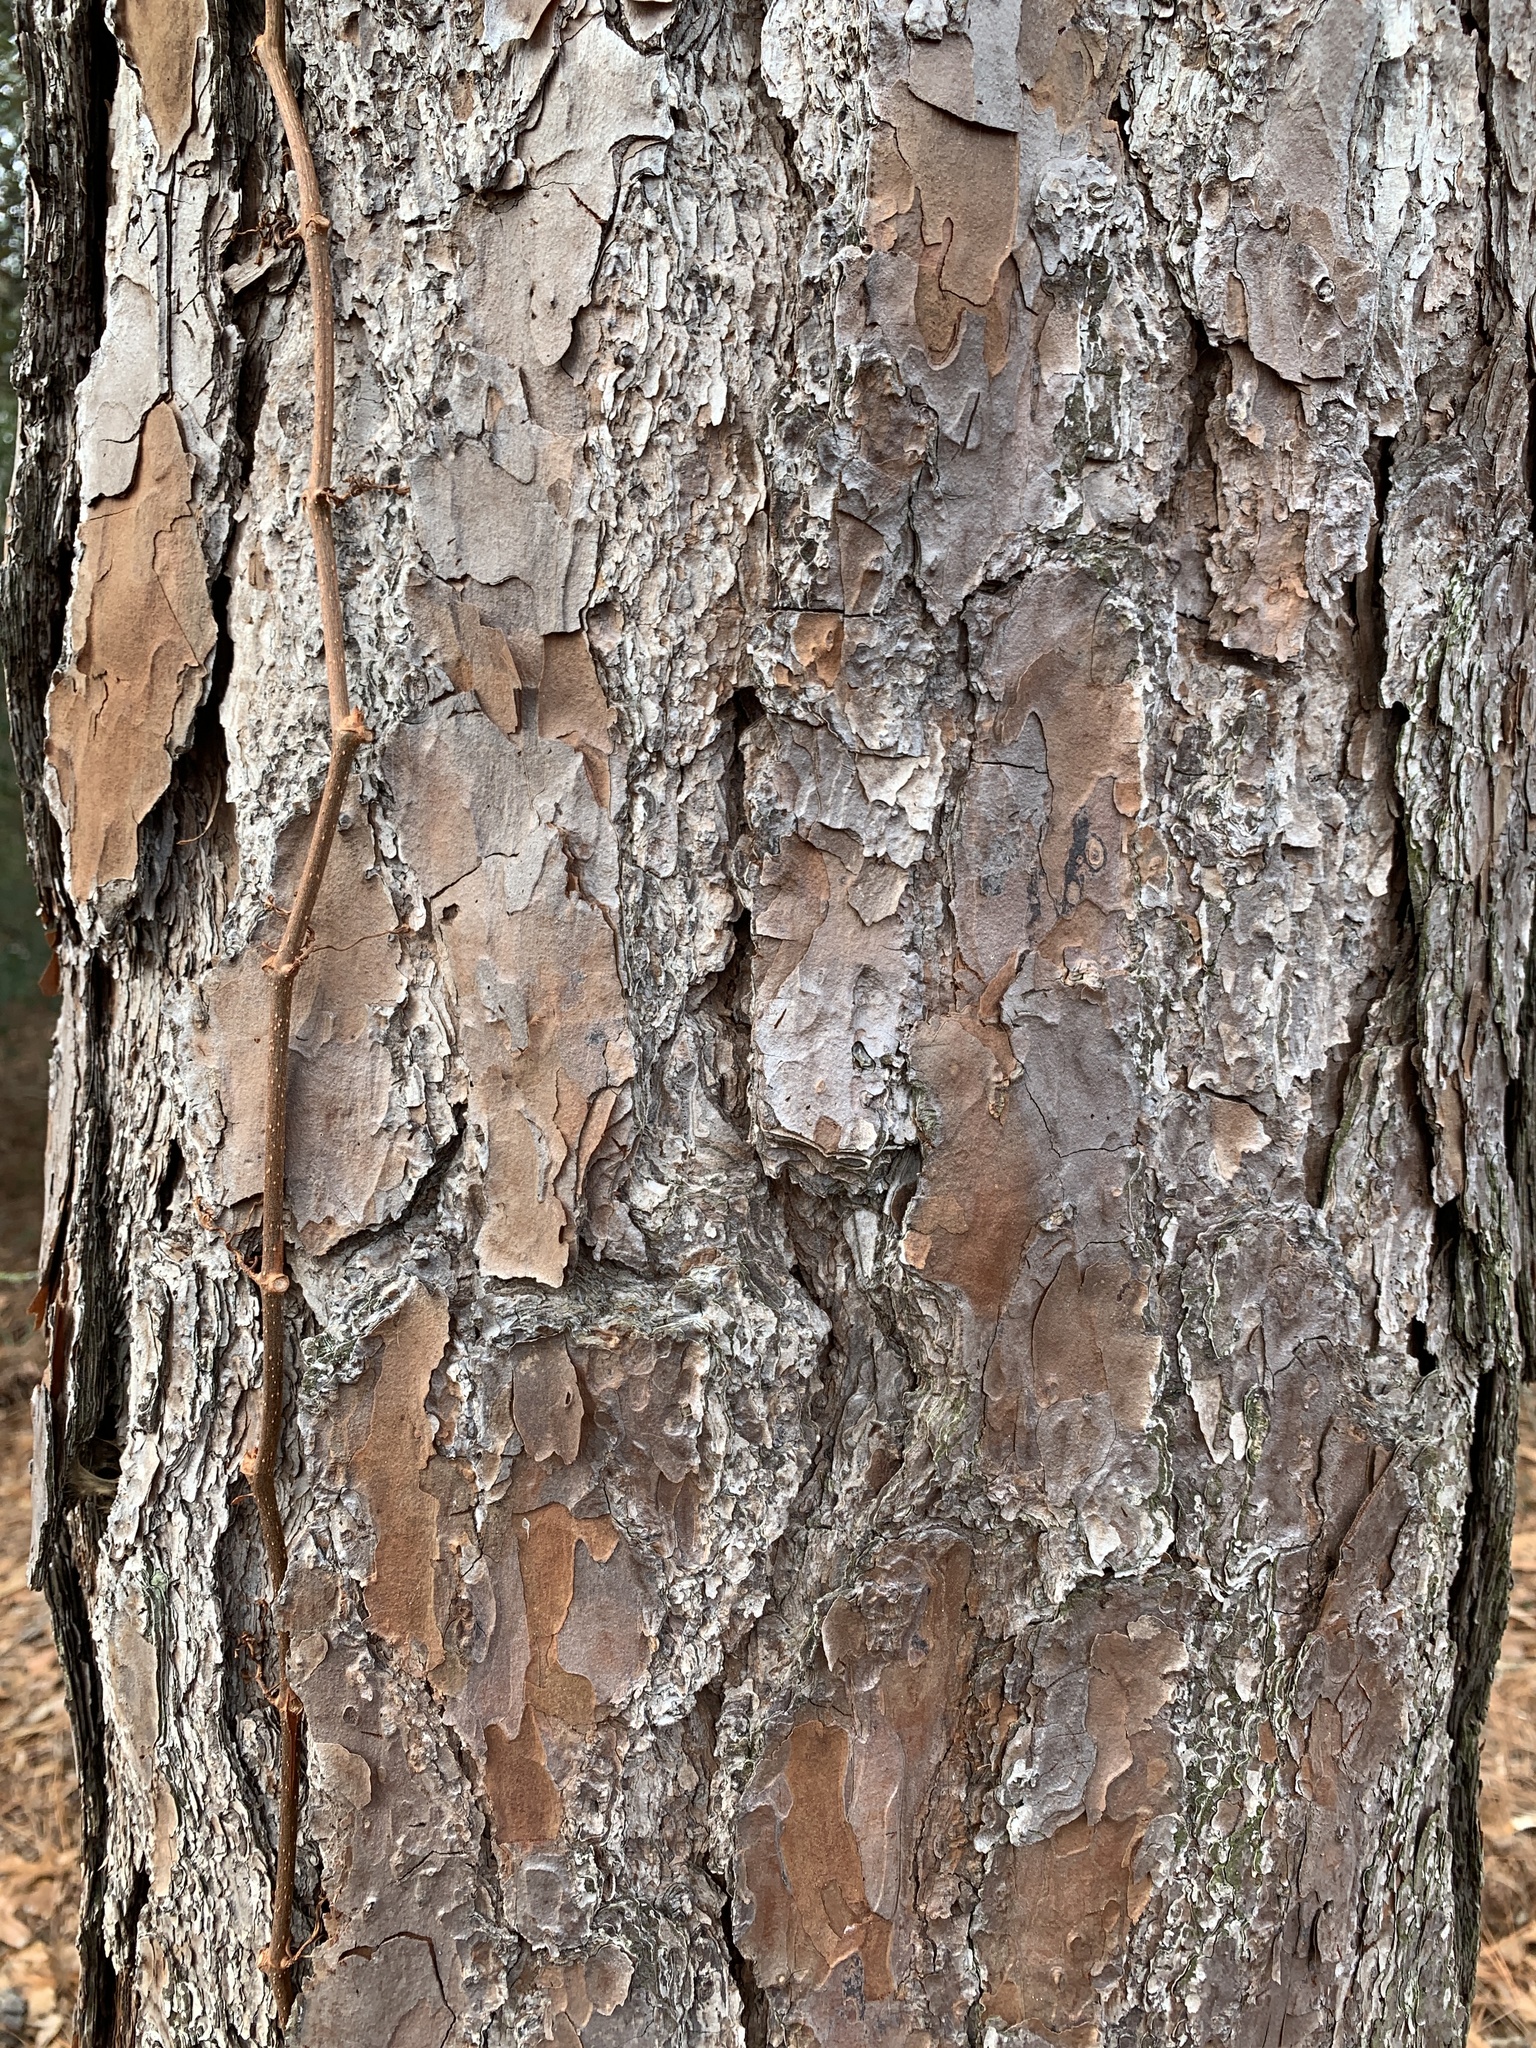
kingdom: Plantae
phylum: Tracheophyta
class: Pinopsida
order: Pinales
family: Pinaceae
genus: Pinus
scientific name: Pinus palustris
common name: Longleaf pine
